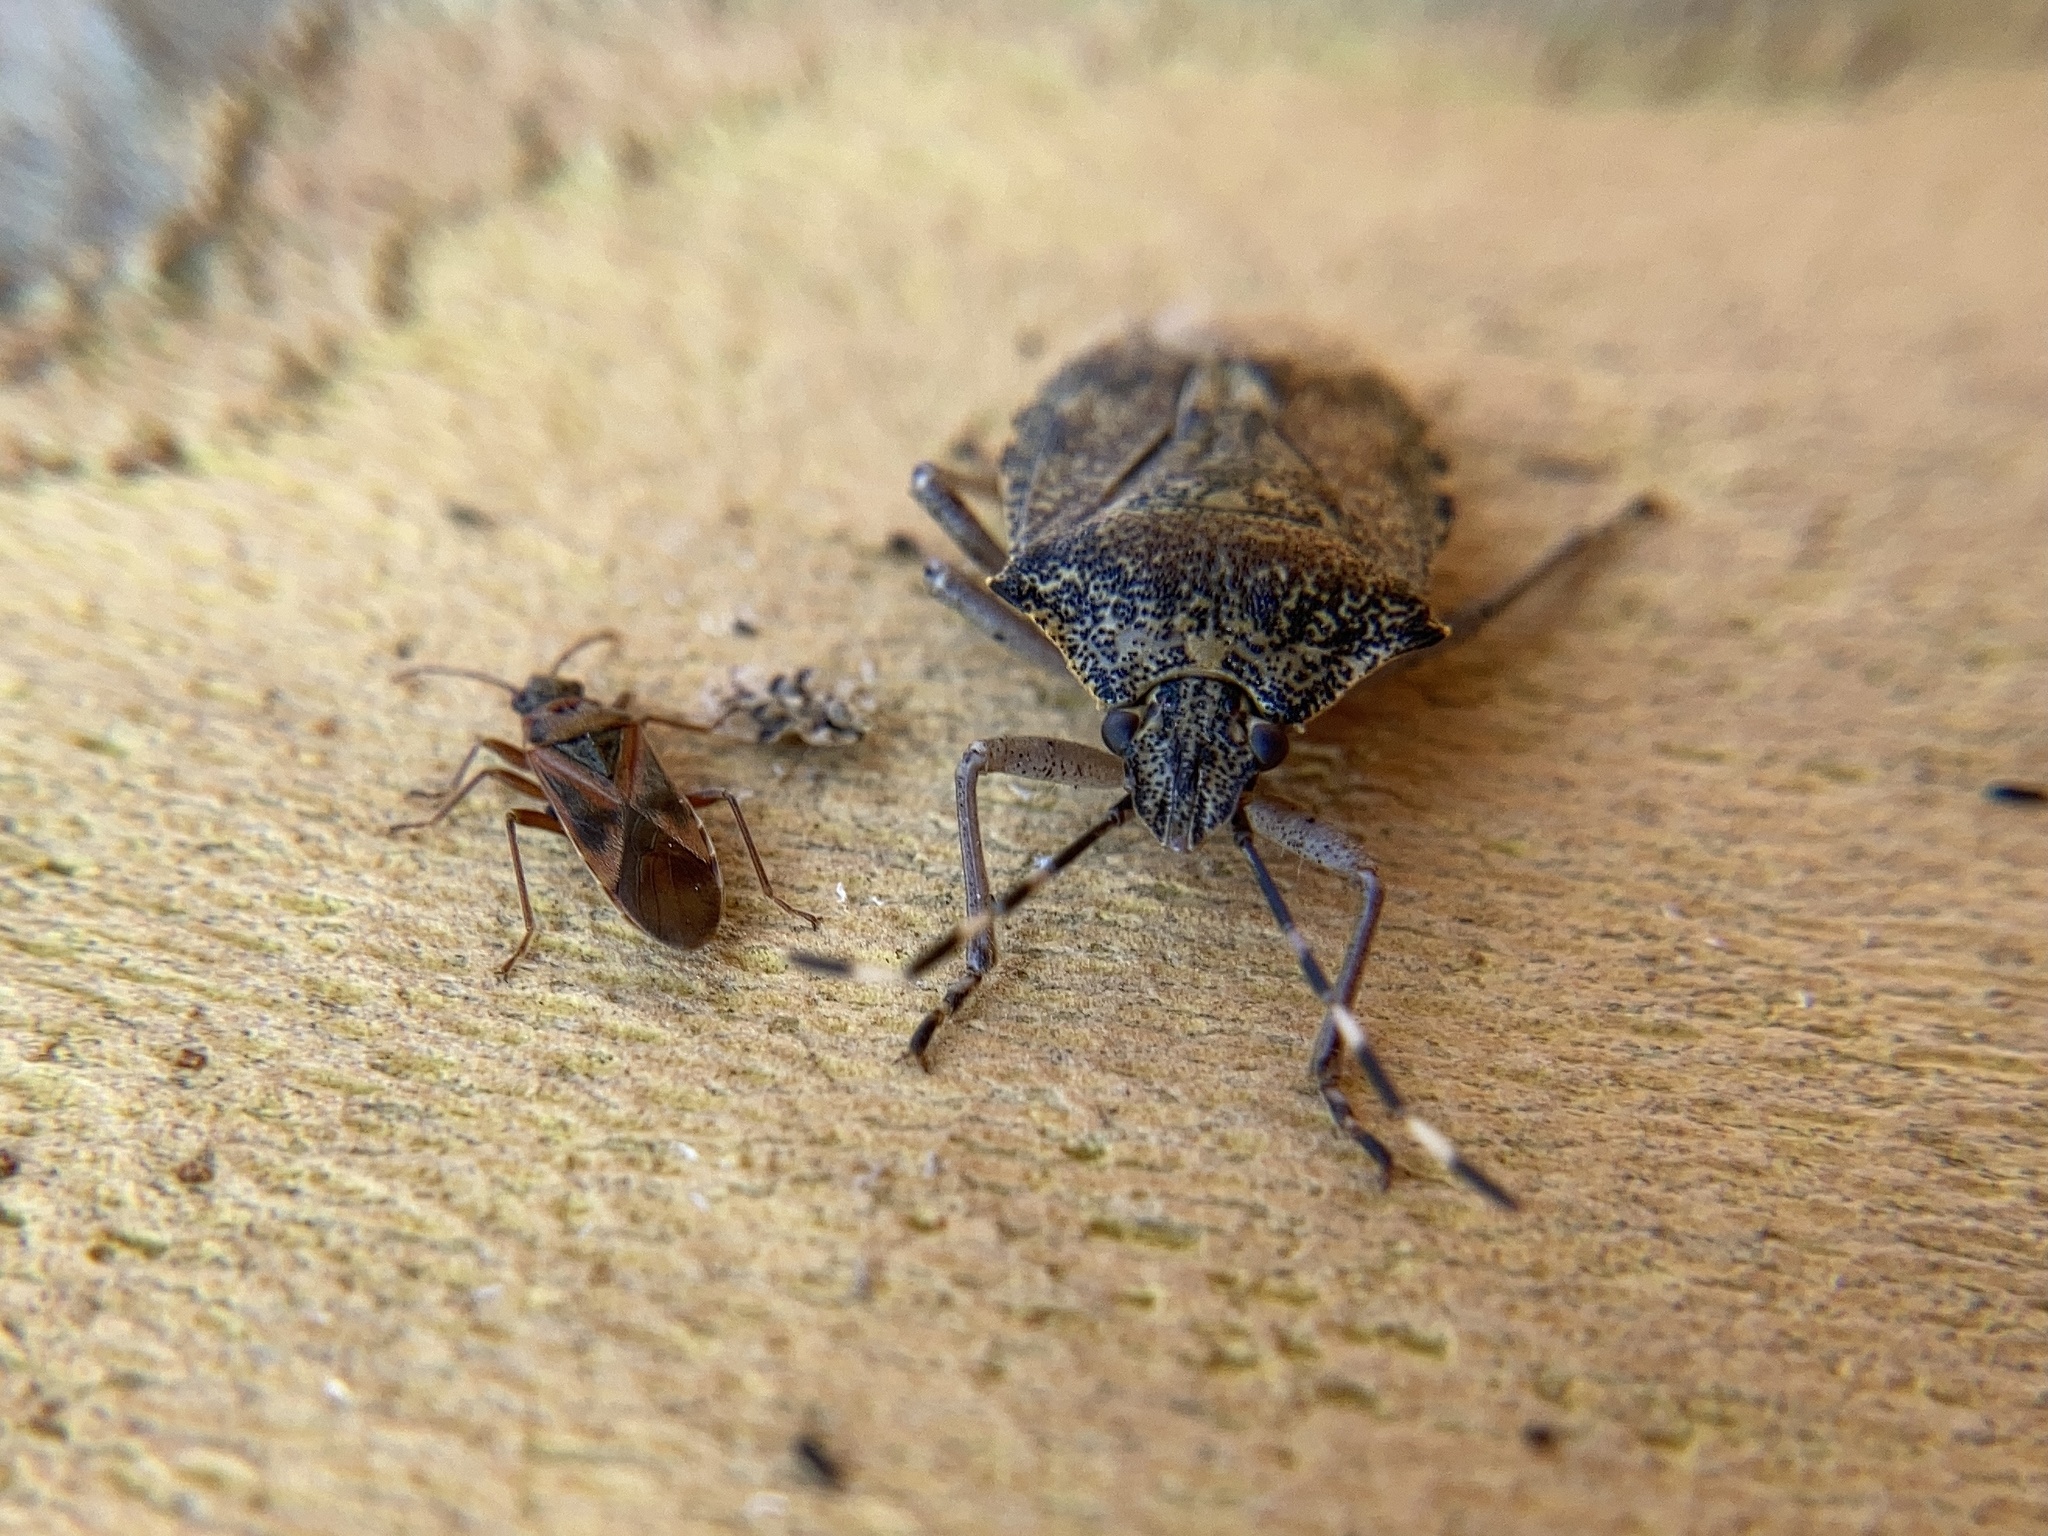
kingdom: Animalia
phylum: Arthropoda
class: Insecta
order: Hemiptera
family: Pentatomidae
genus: Rhaphigaster
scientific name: Rhaphigaster nebulosa
